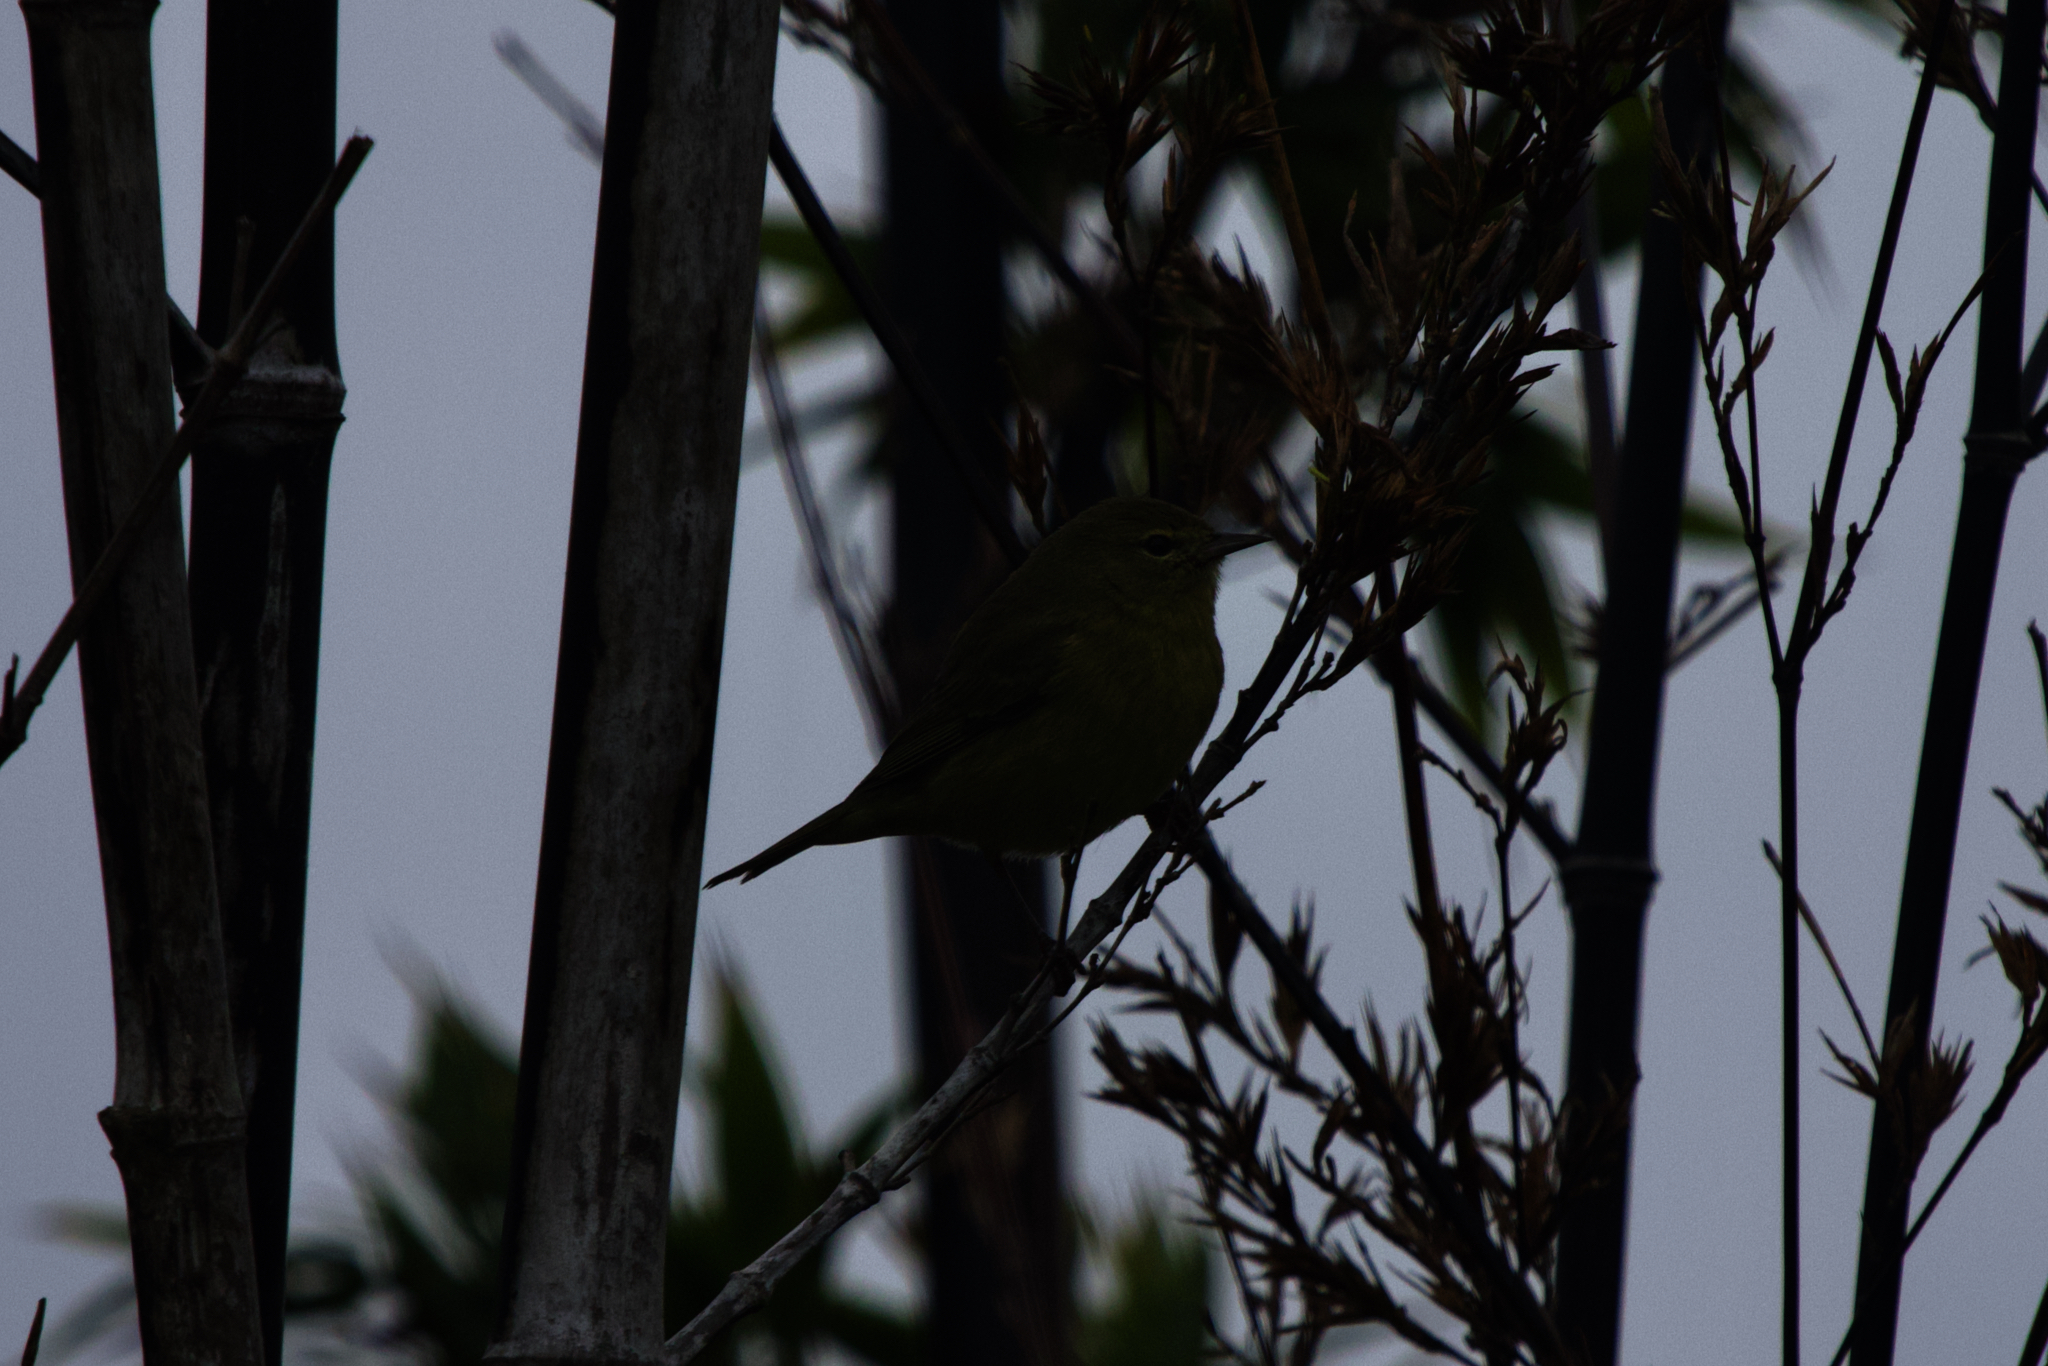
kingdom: Animalia
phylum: Chordata
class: Aves
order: Passeriformes
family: Parulidae
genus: Leiothlypis
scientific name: Leiothlypis celata
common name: Orange-crowned warbler
